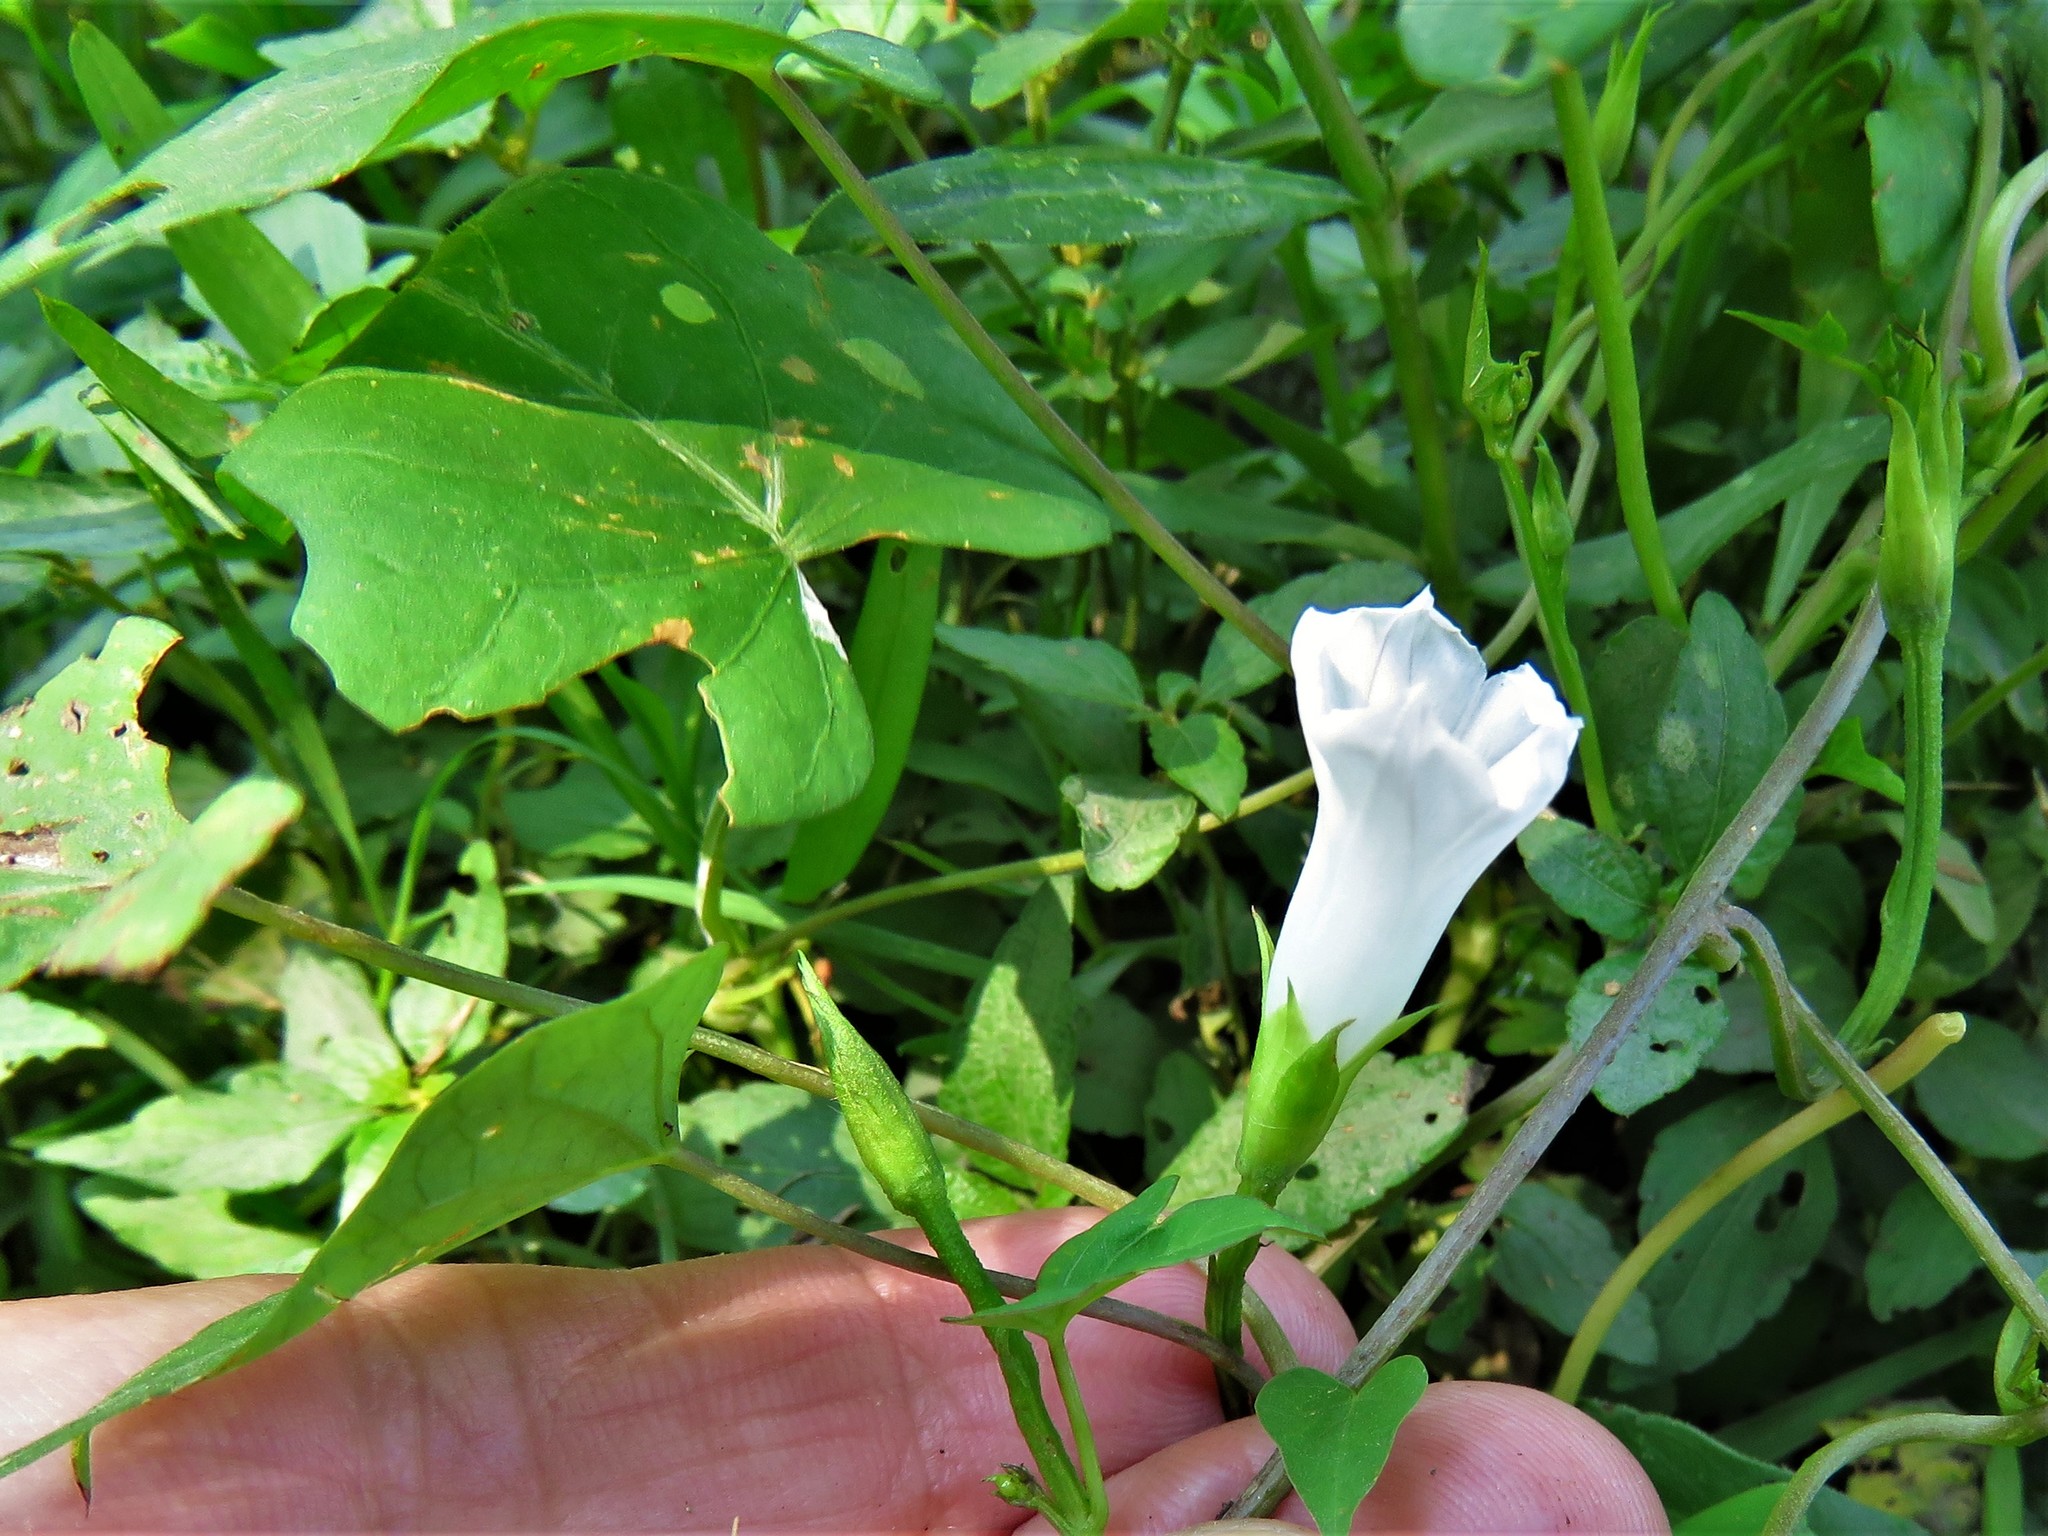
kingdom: Plantae
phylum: Tracheophyta
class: Magnoliopsida
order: Solanales
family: Convolvulaceae
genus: Ipomoea
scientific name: Ipomoea lacunosa
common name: White morning-glory
